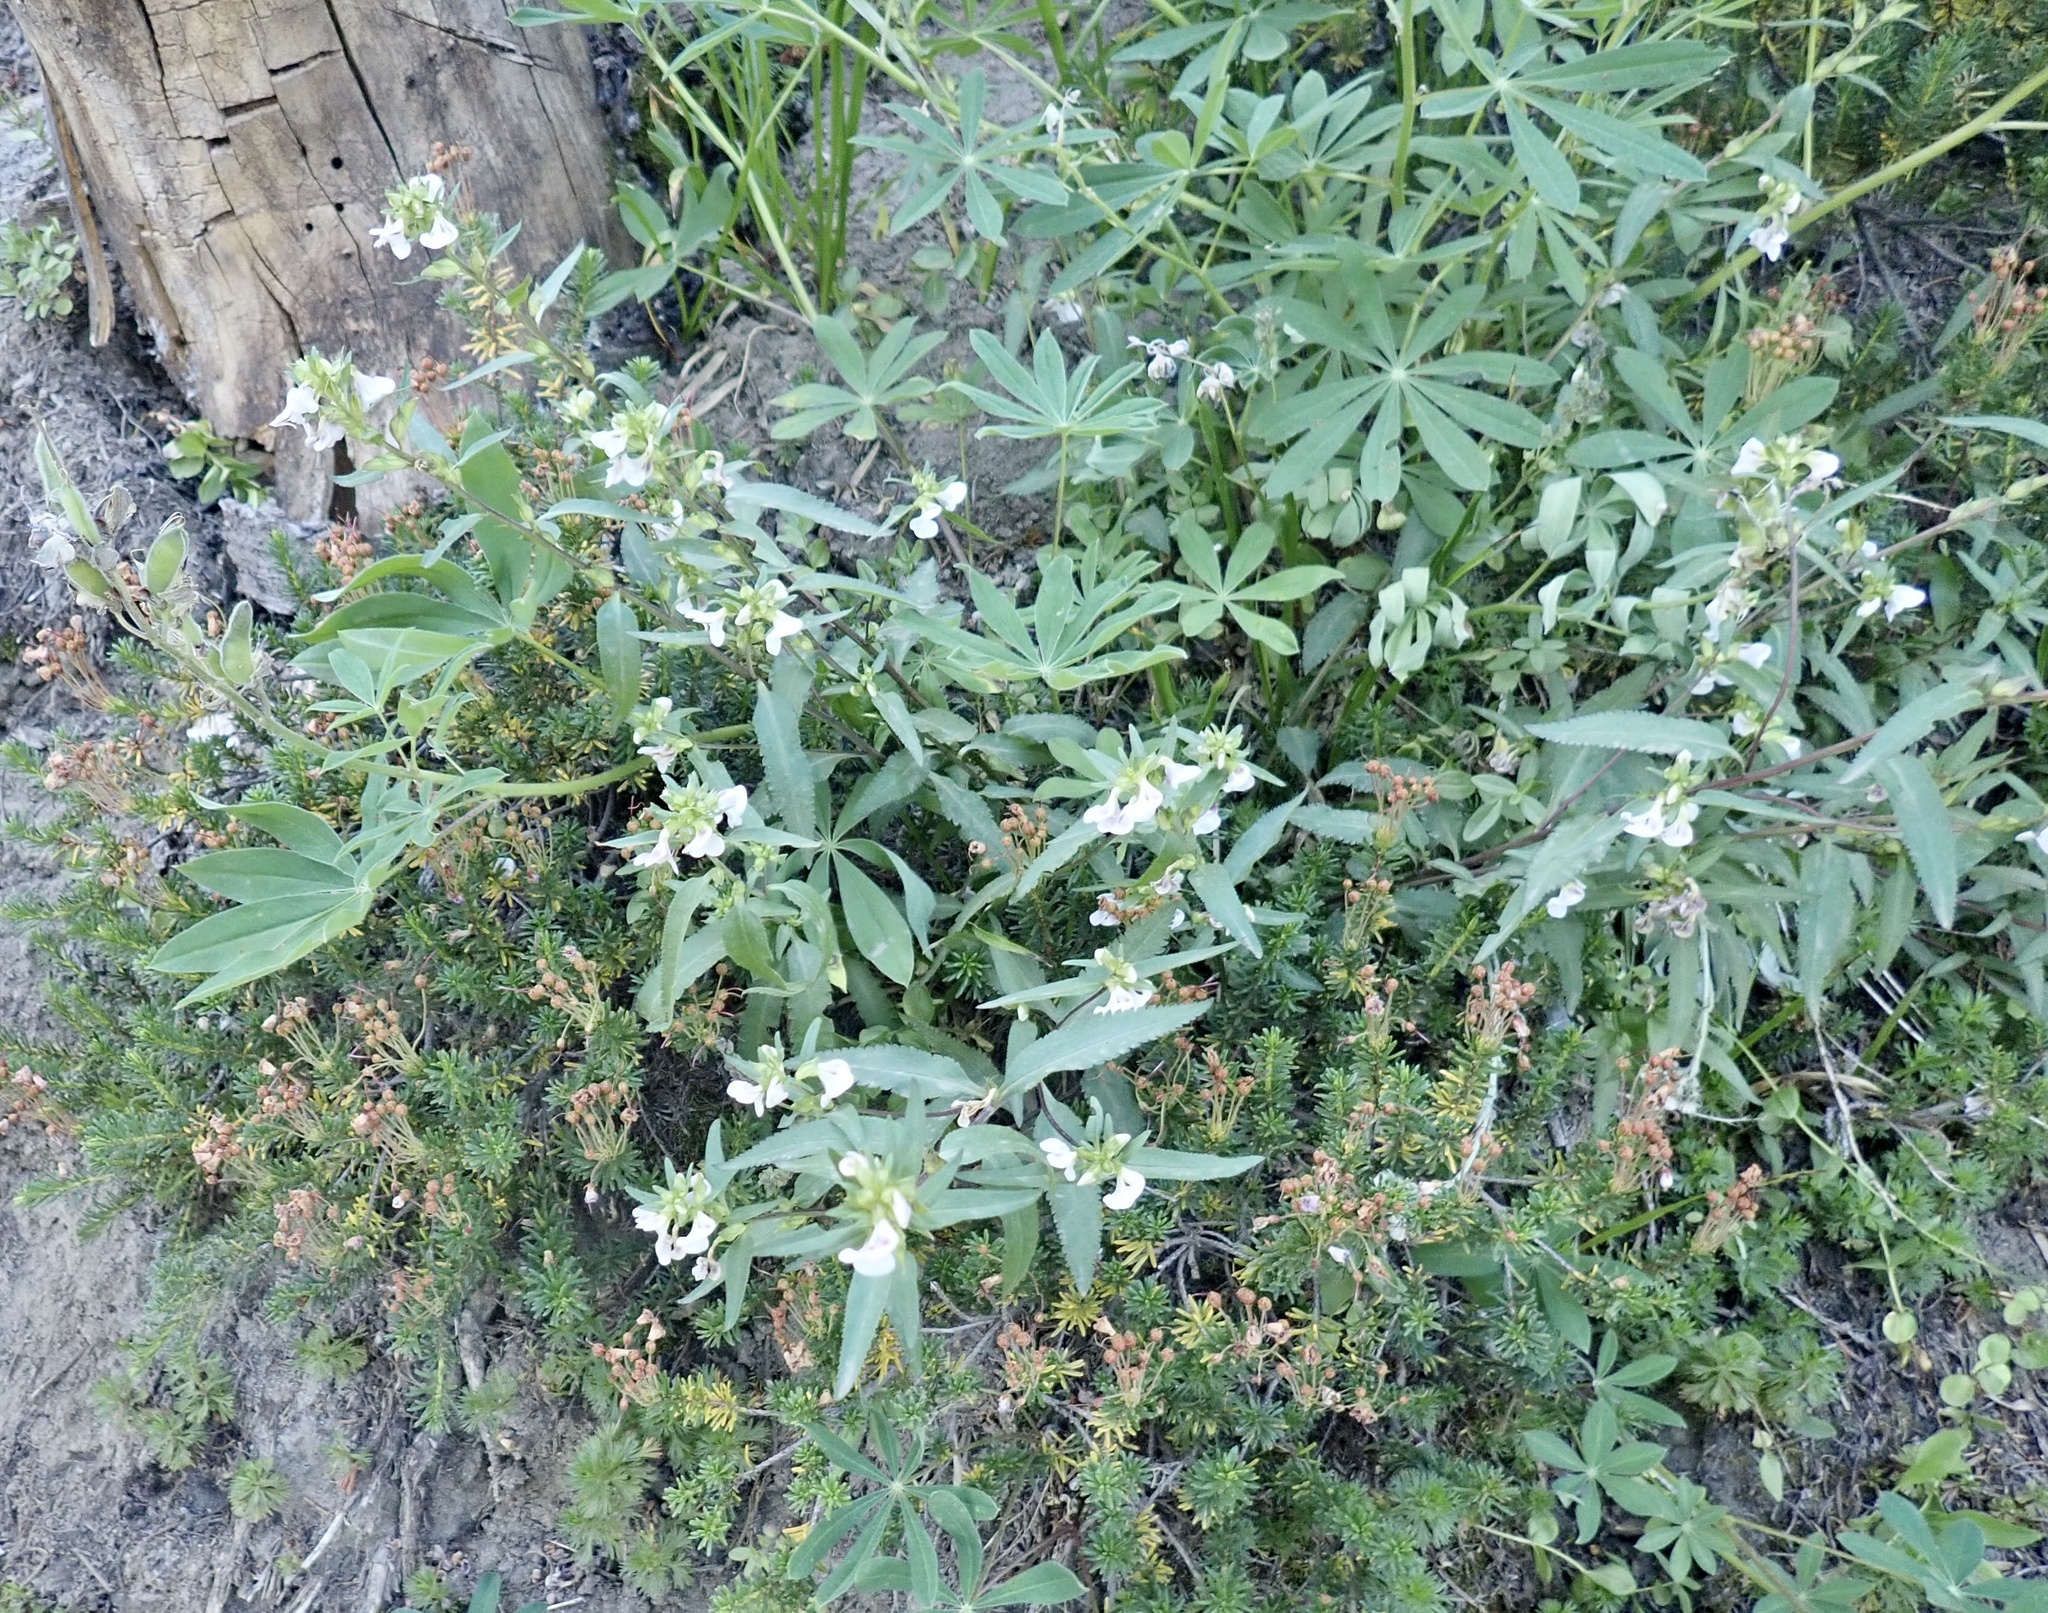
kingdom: Plantae
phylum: Tracheophyta
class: Magnoliopsida
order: Lamiales
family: Orobanchaceae
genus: Pedicularis
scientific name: Pedicularis racemosa
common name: Leafy lousewort
